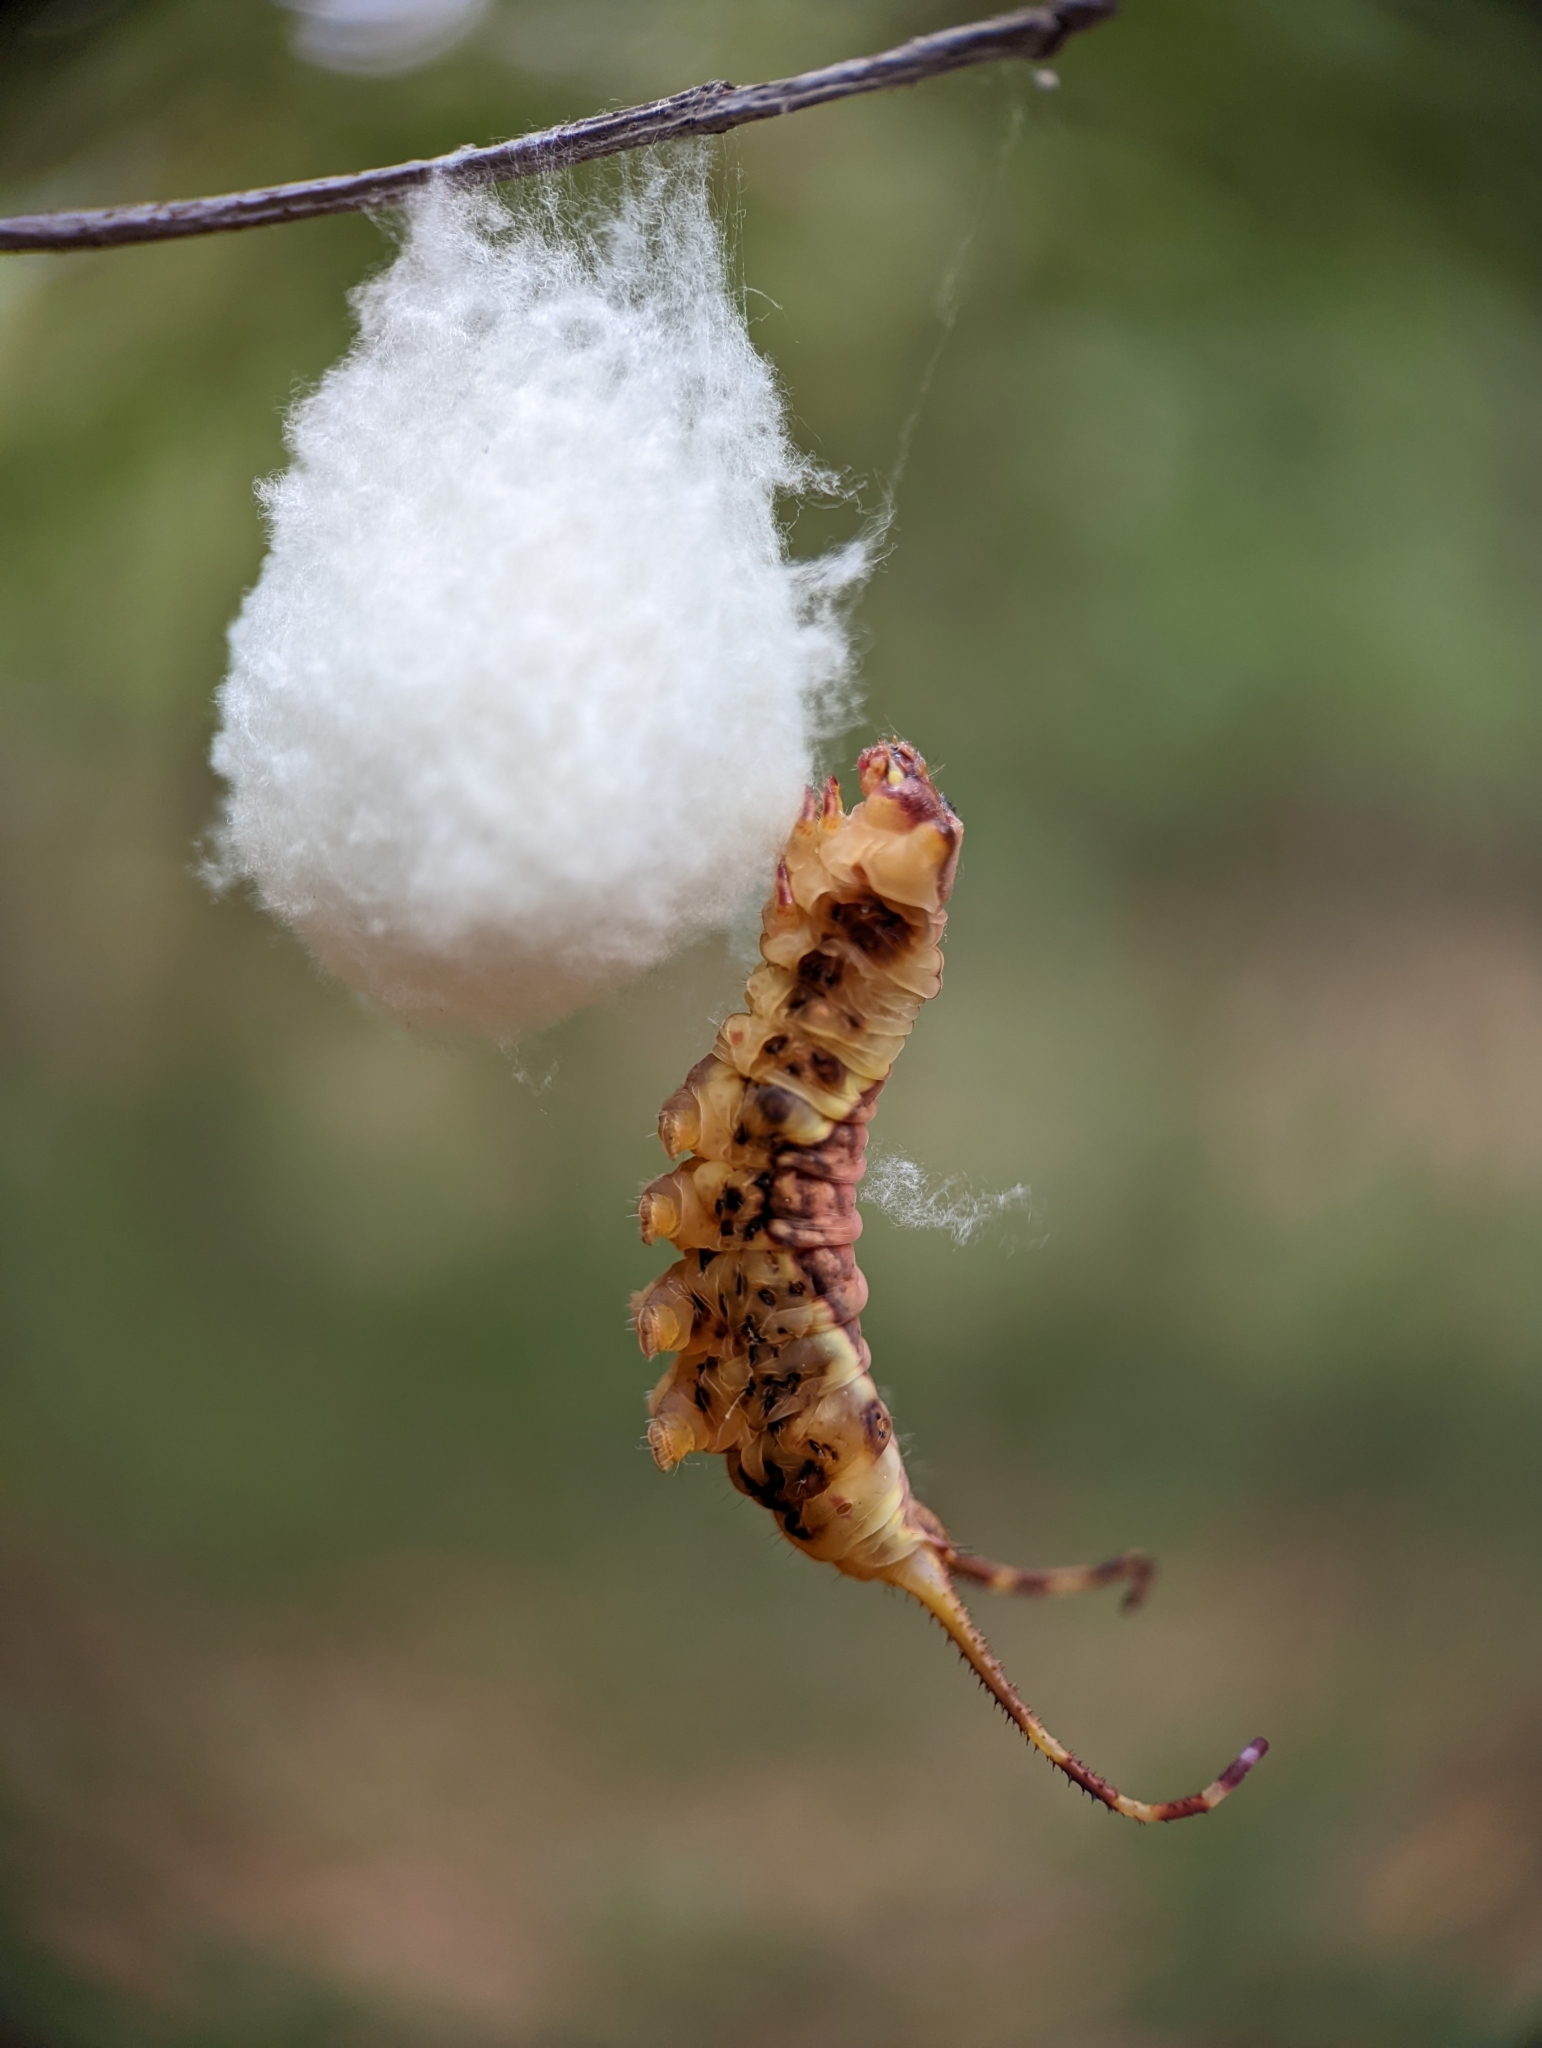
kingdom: Animalia
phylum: Arthropoda
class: Insecta
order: Lepidoptera
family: Notodontidae
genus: Furcula
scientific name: Furcula borealis
